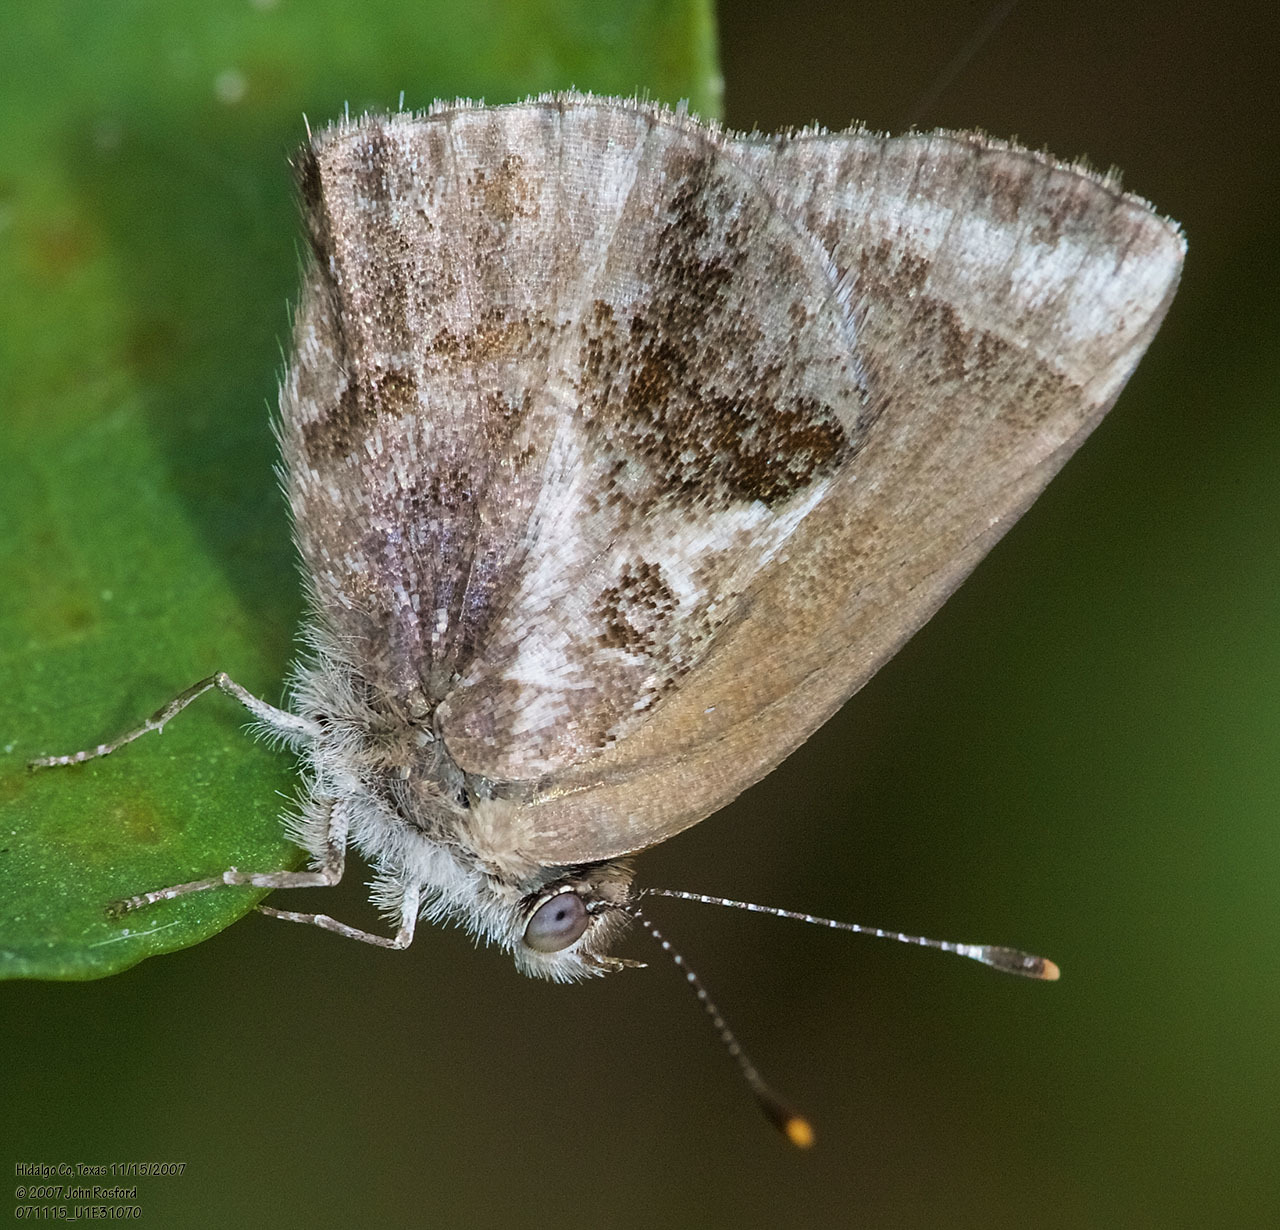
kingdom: Animalia
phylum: Arthropoda
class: Insecta
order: Lepidoptera
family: Lycaenidae
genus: Strymon
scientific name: Strymon bazochii
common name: Lantana scrub-hairstreak
